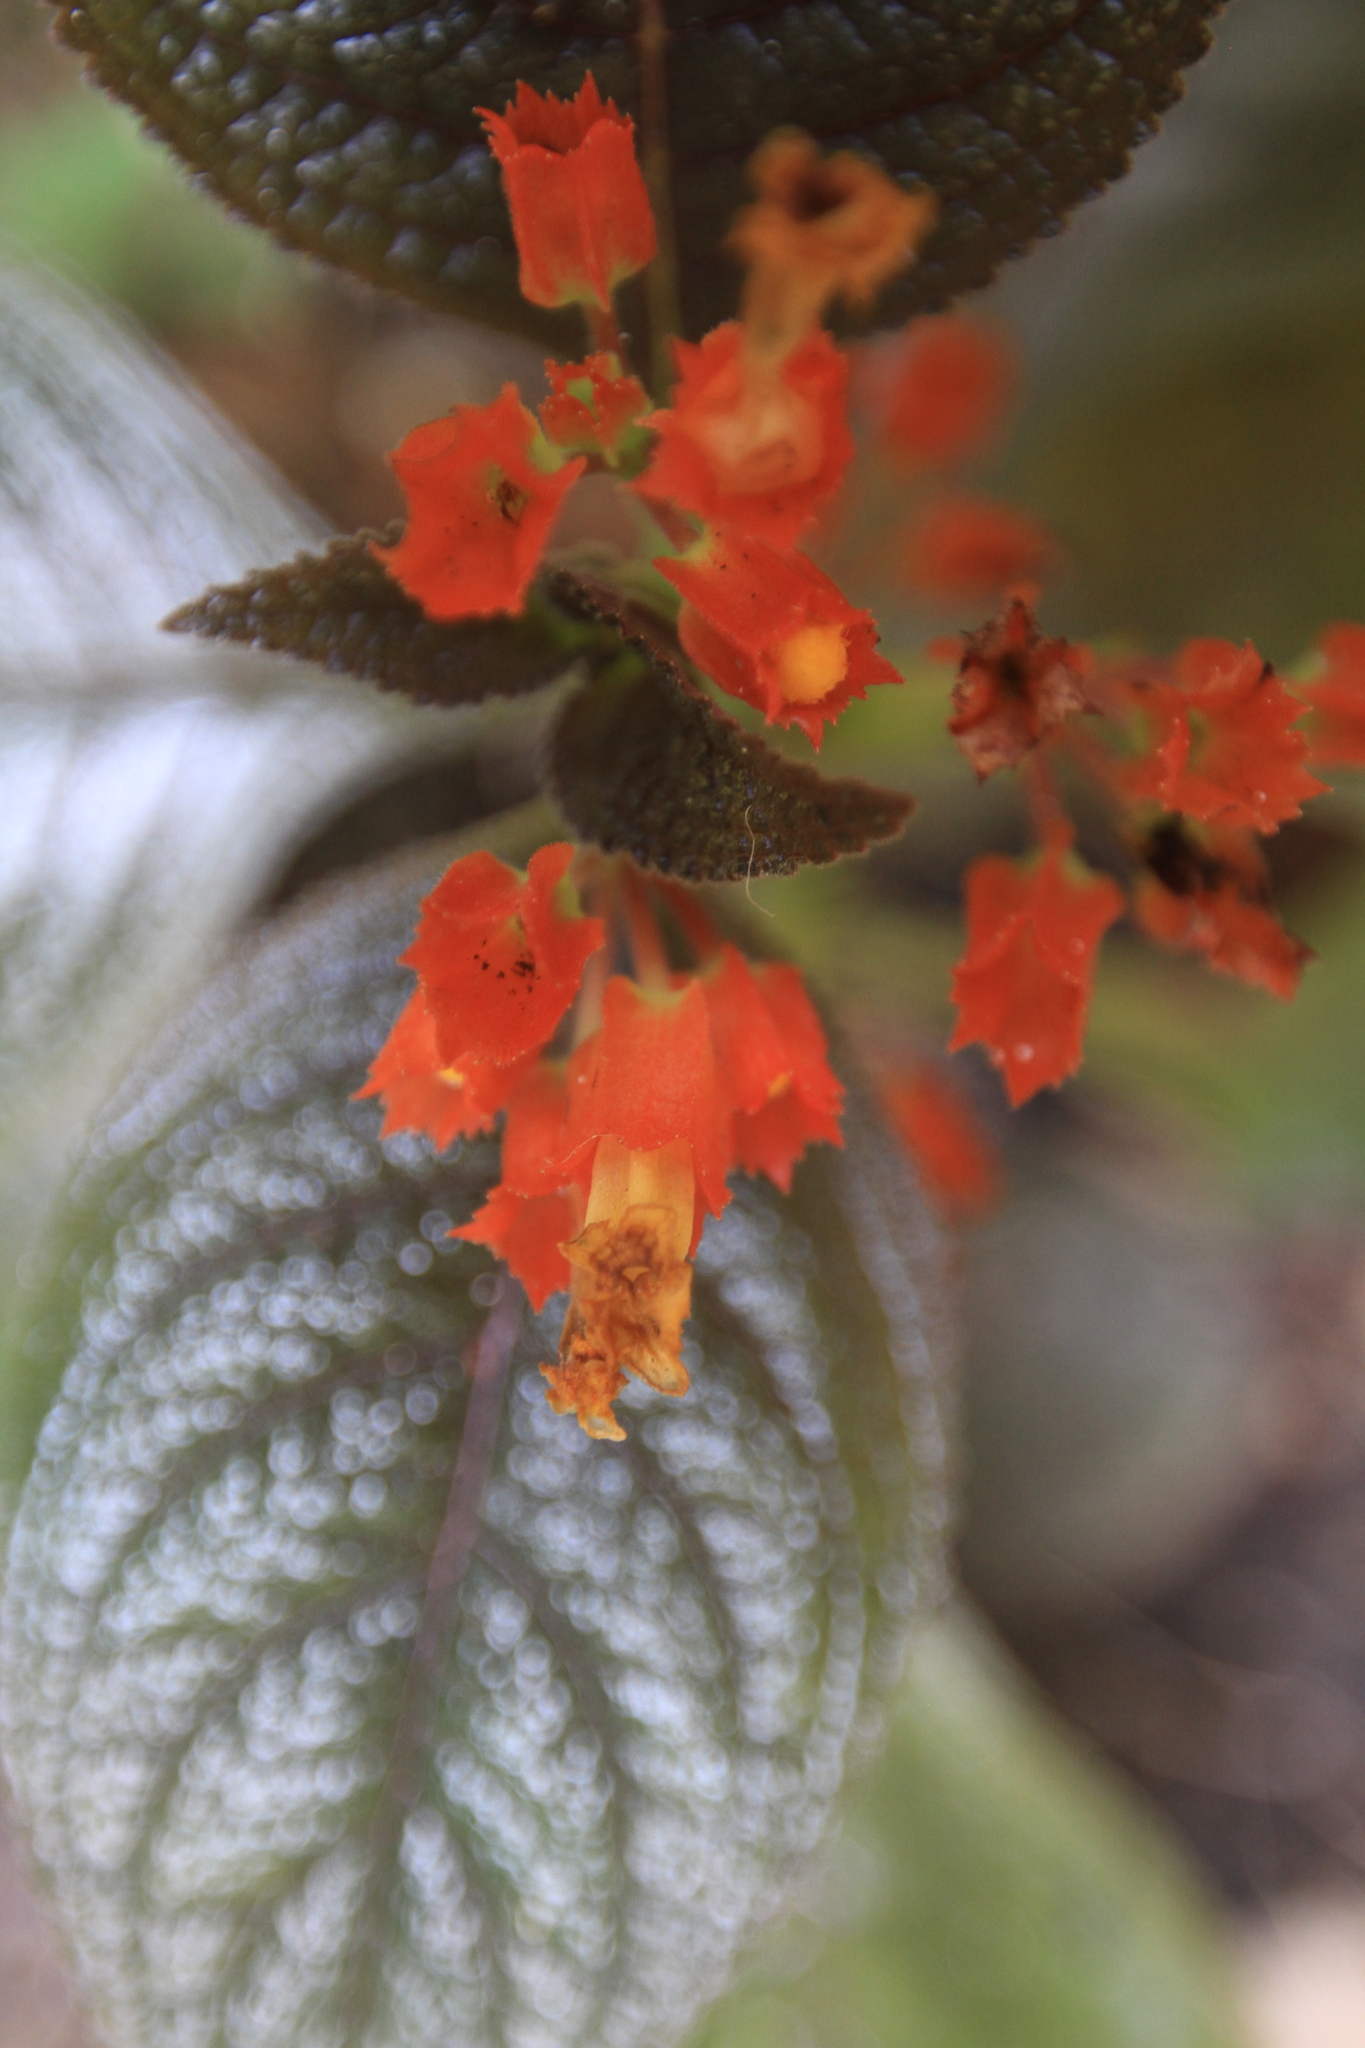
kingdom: Plantae
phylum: Tracheophyta
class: Magnoliopsida
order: Lamiales
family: Gesneriaceae
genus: Chrysothemis
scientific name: Chrysothemis pulchella
